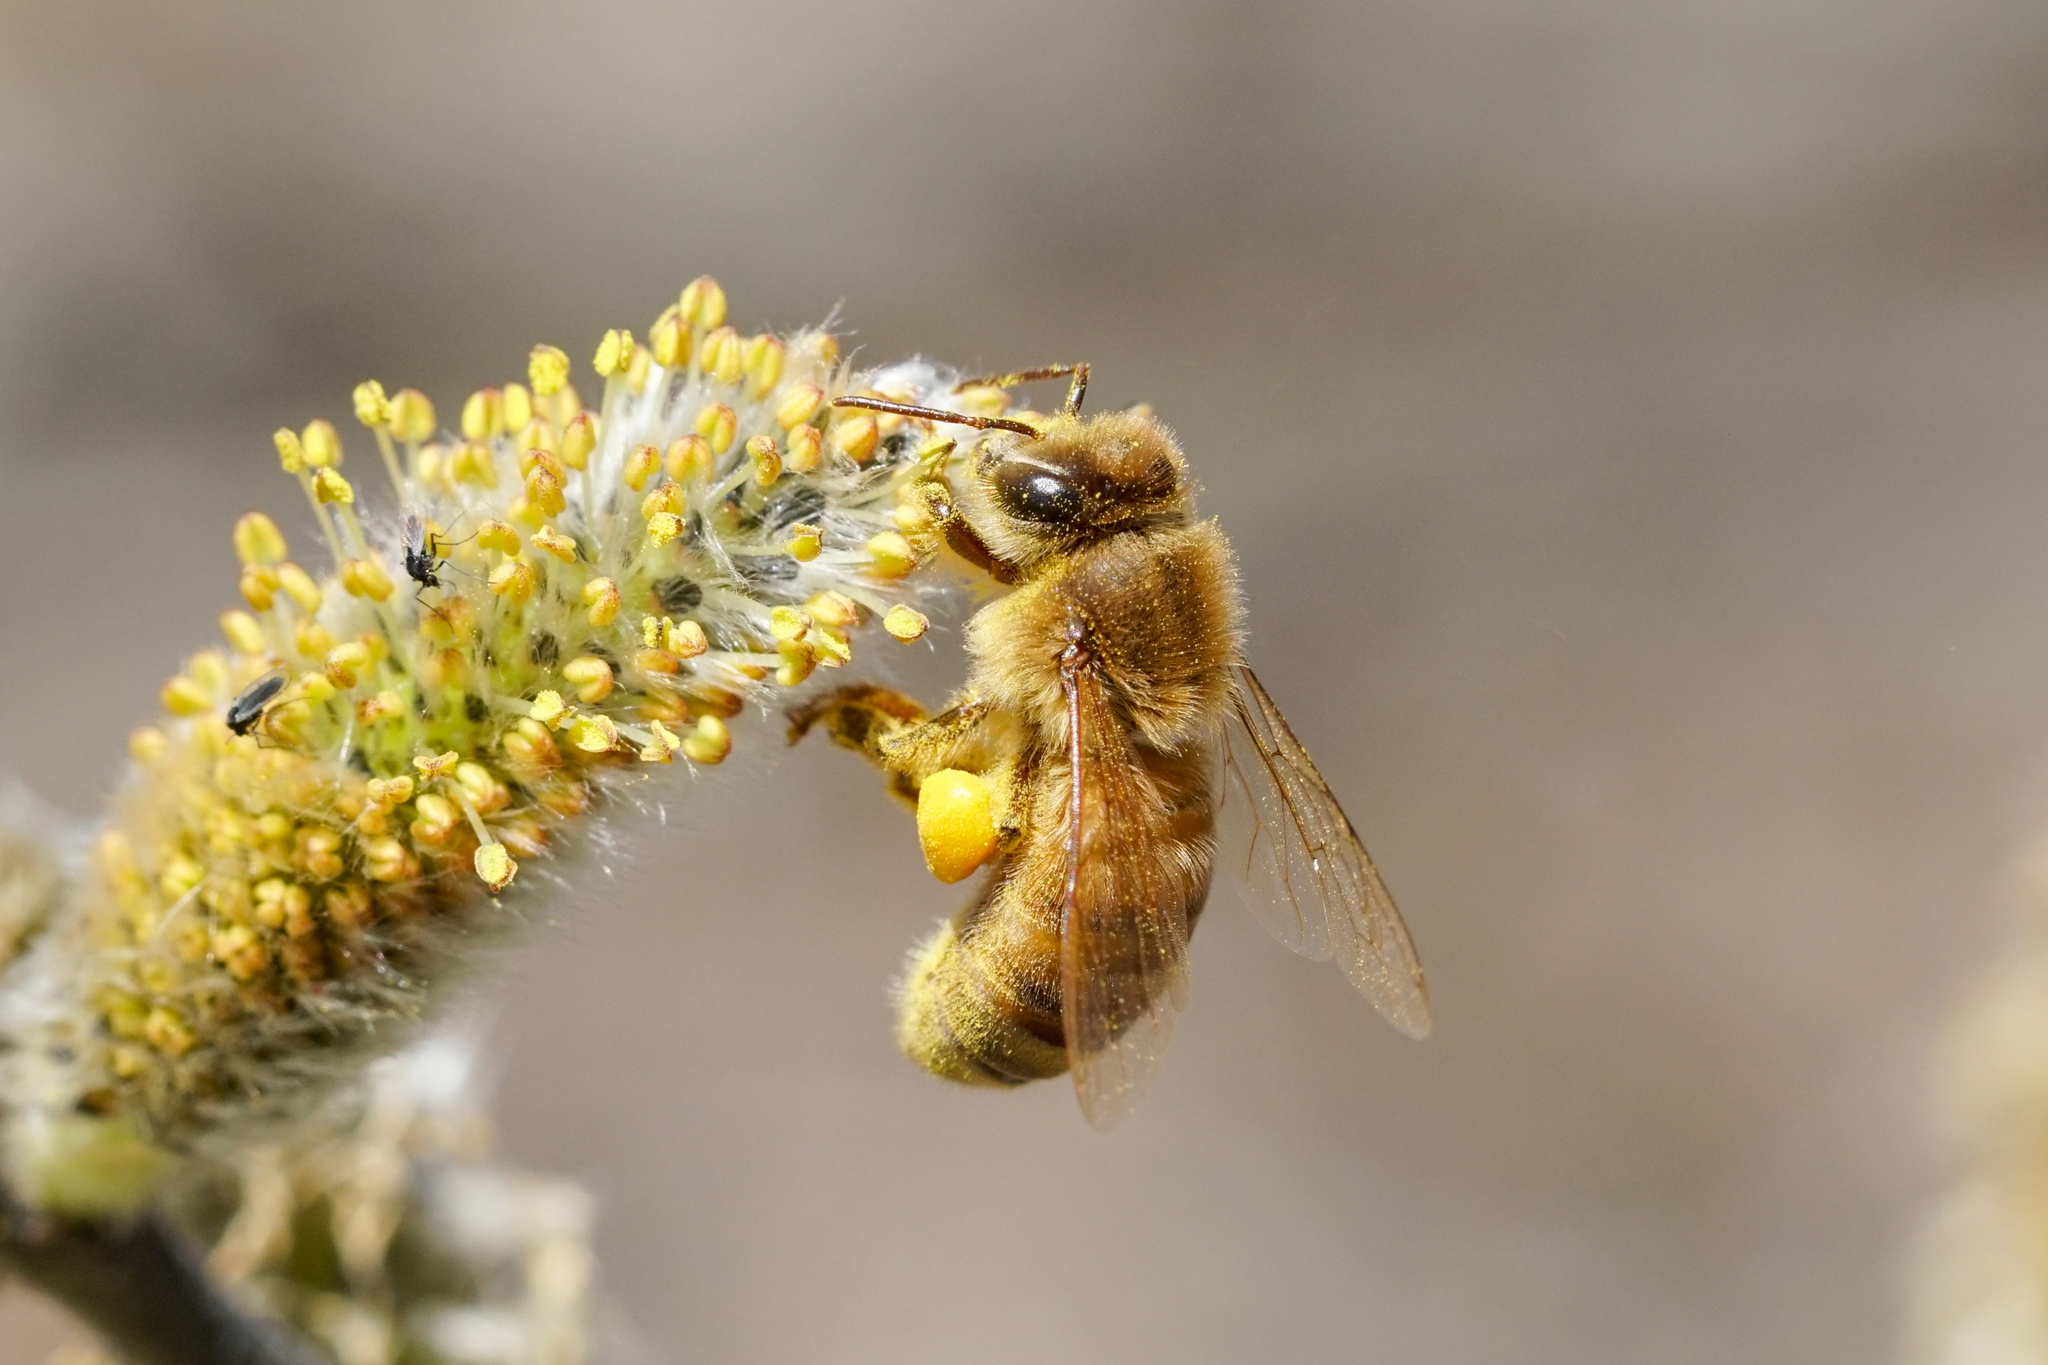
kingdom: Animalia
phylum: Arthropoda
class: Insecta
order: Hymenoptera
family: Apidae
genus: Apis
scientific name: Apis mellifera
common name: Honey bee
